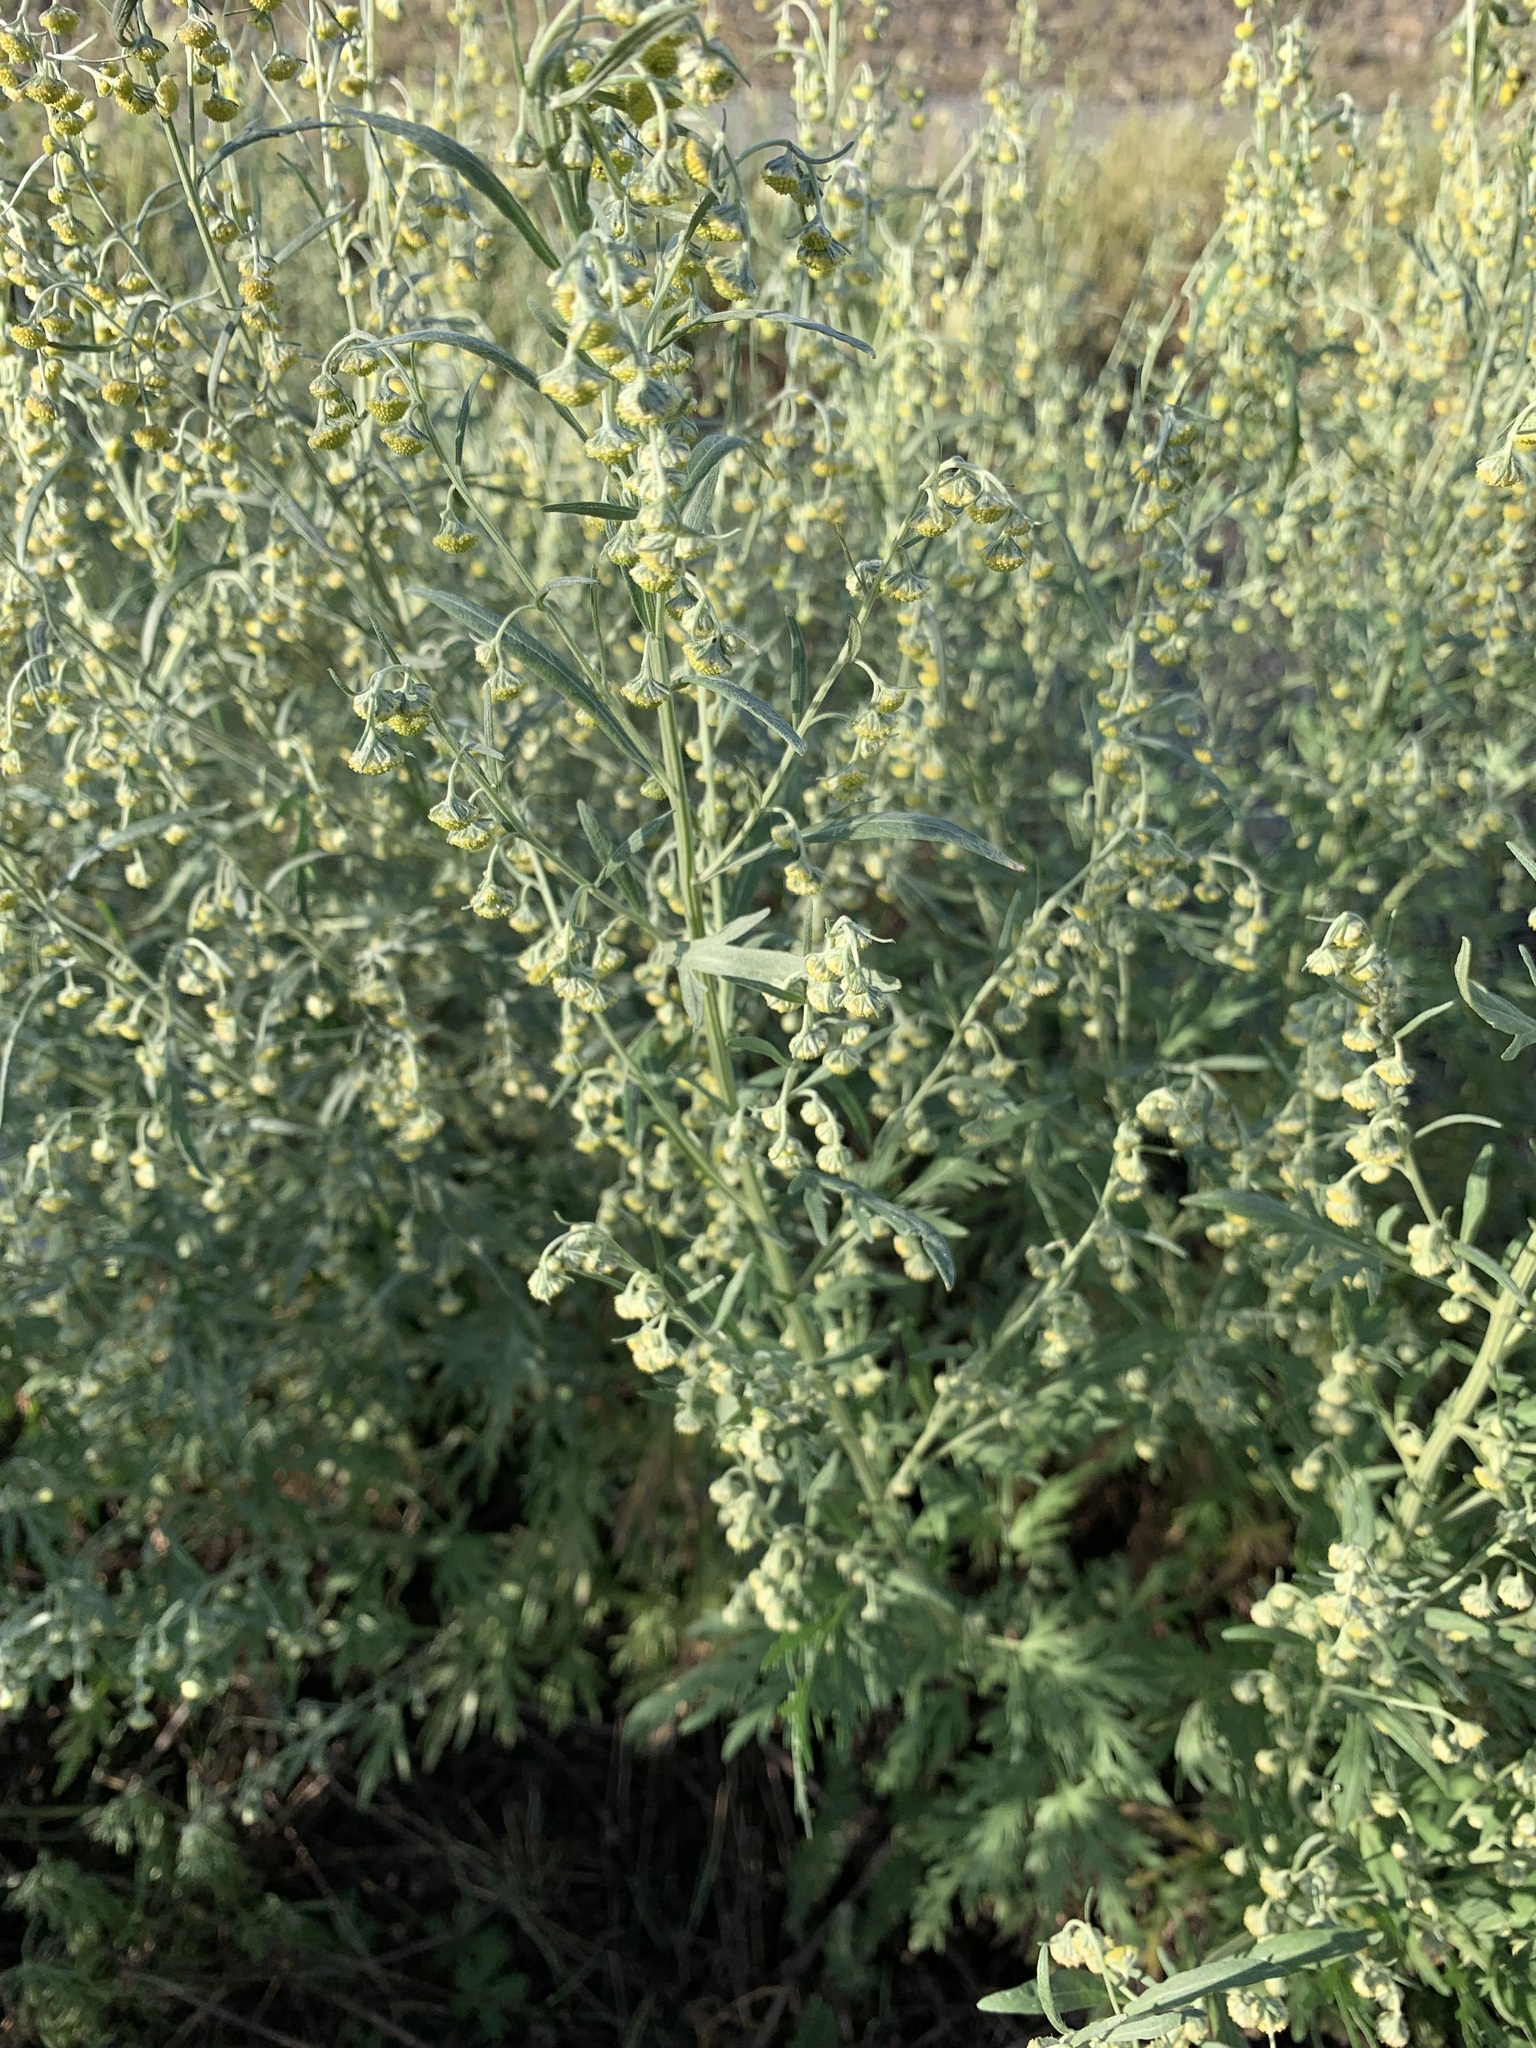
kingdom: Plantae
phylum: Tracheophyta
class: Magnoliopsida
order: Asterales
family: Asteraceae
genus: Artemisia
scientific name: Artemisia sieversiana
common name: Sieversian wormwood
